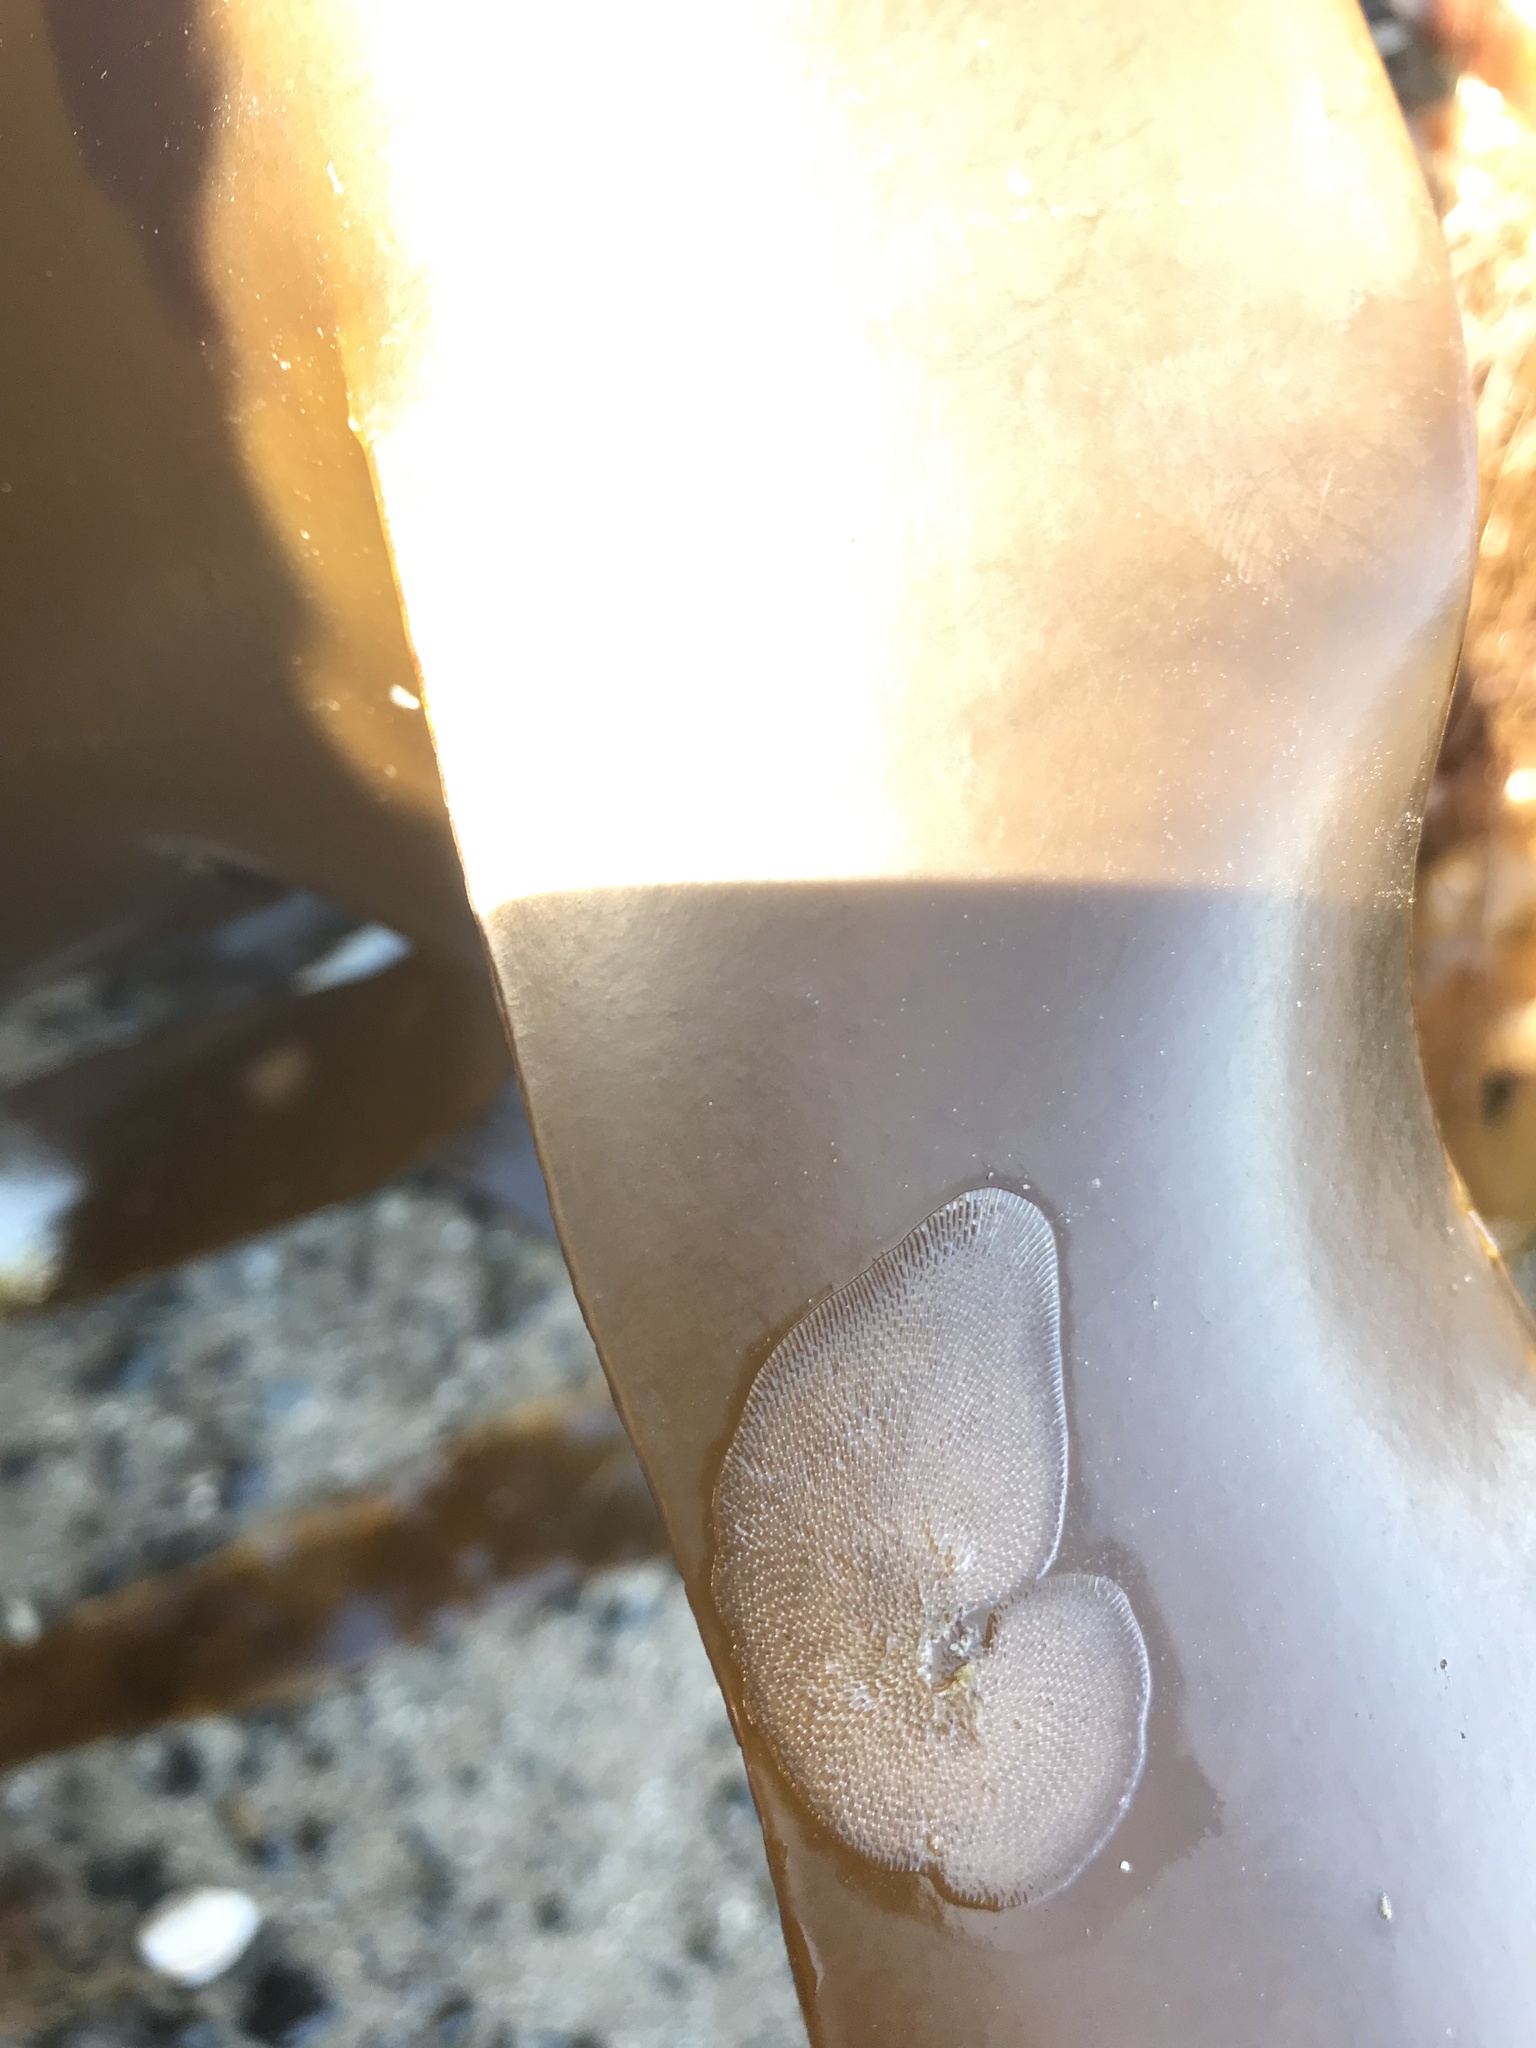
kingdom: Animalia
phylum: Bryozoa
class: Gymnolaemata
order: Cheilostomatida
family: Membraniporidae
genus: Membranipora
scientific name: Membranipora membranacea
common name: Sea mat
